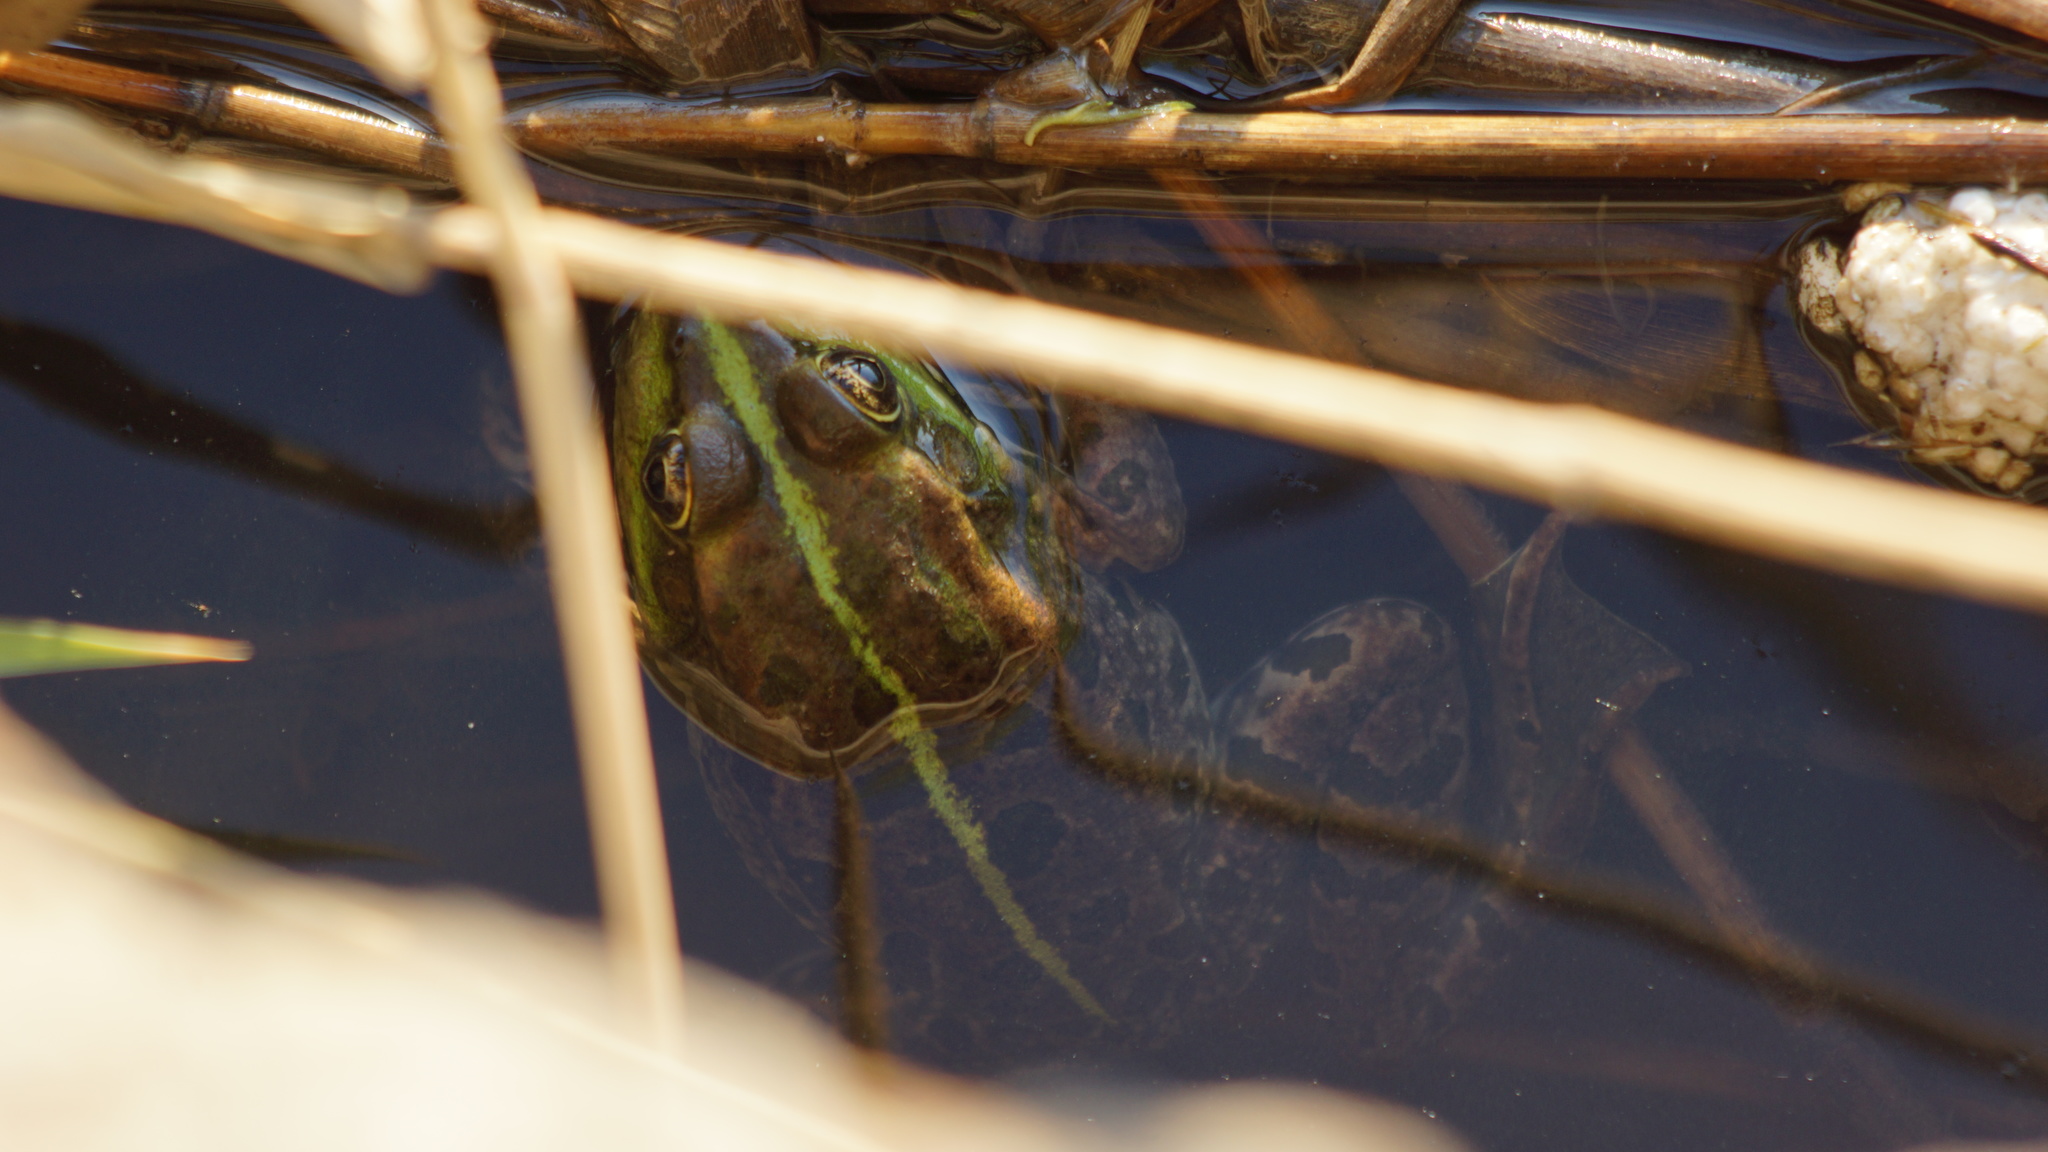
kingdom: Animalia
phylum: Chordata
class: Amphibia
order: Anura
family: Ranidae
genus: Pelophylax
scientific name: Pelophylax ridibundus
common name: Marsh frog
